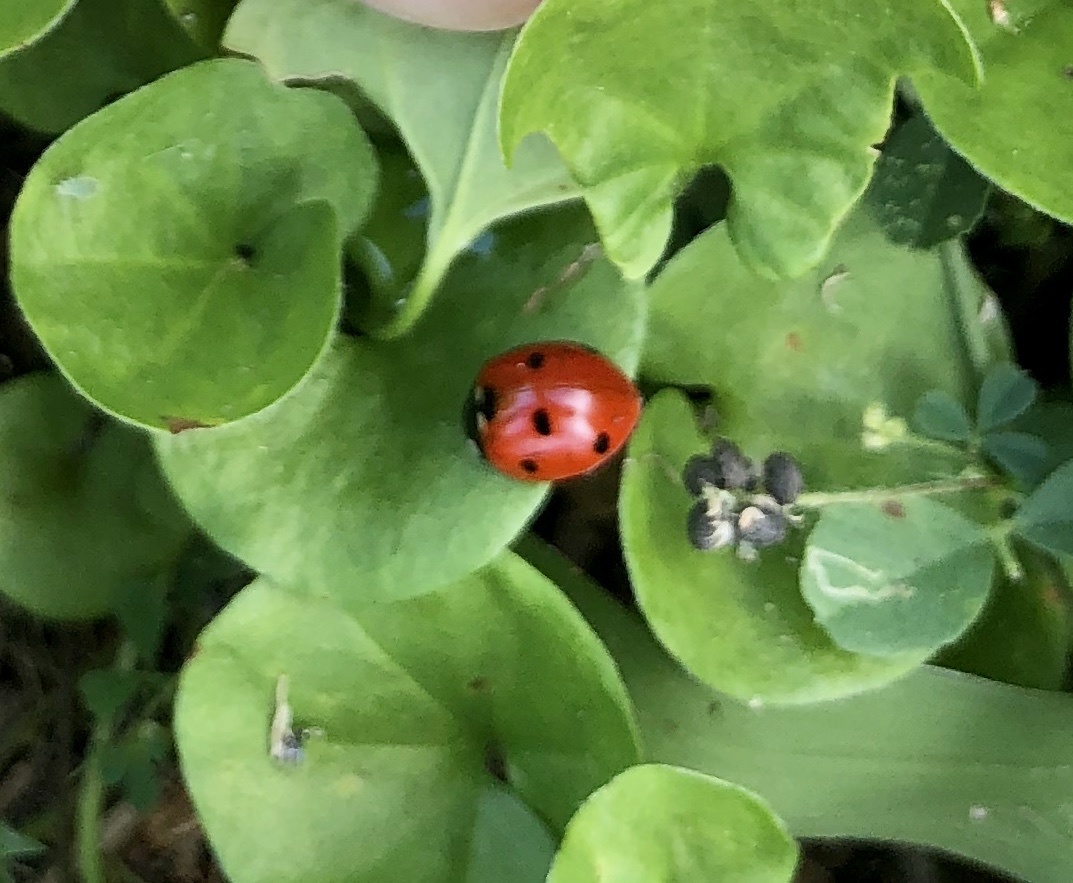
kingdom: Animalia
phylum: Arthropoda
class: Insecta
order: Coleoptera
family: Coccinellidae
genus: Coccinella
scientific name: Coccinella septempunctata
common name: Sevenspotted lady beetle
